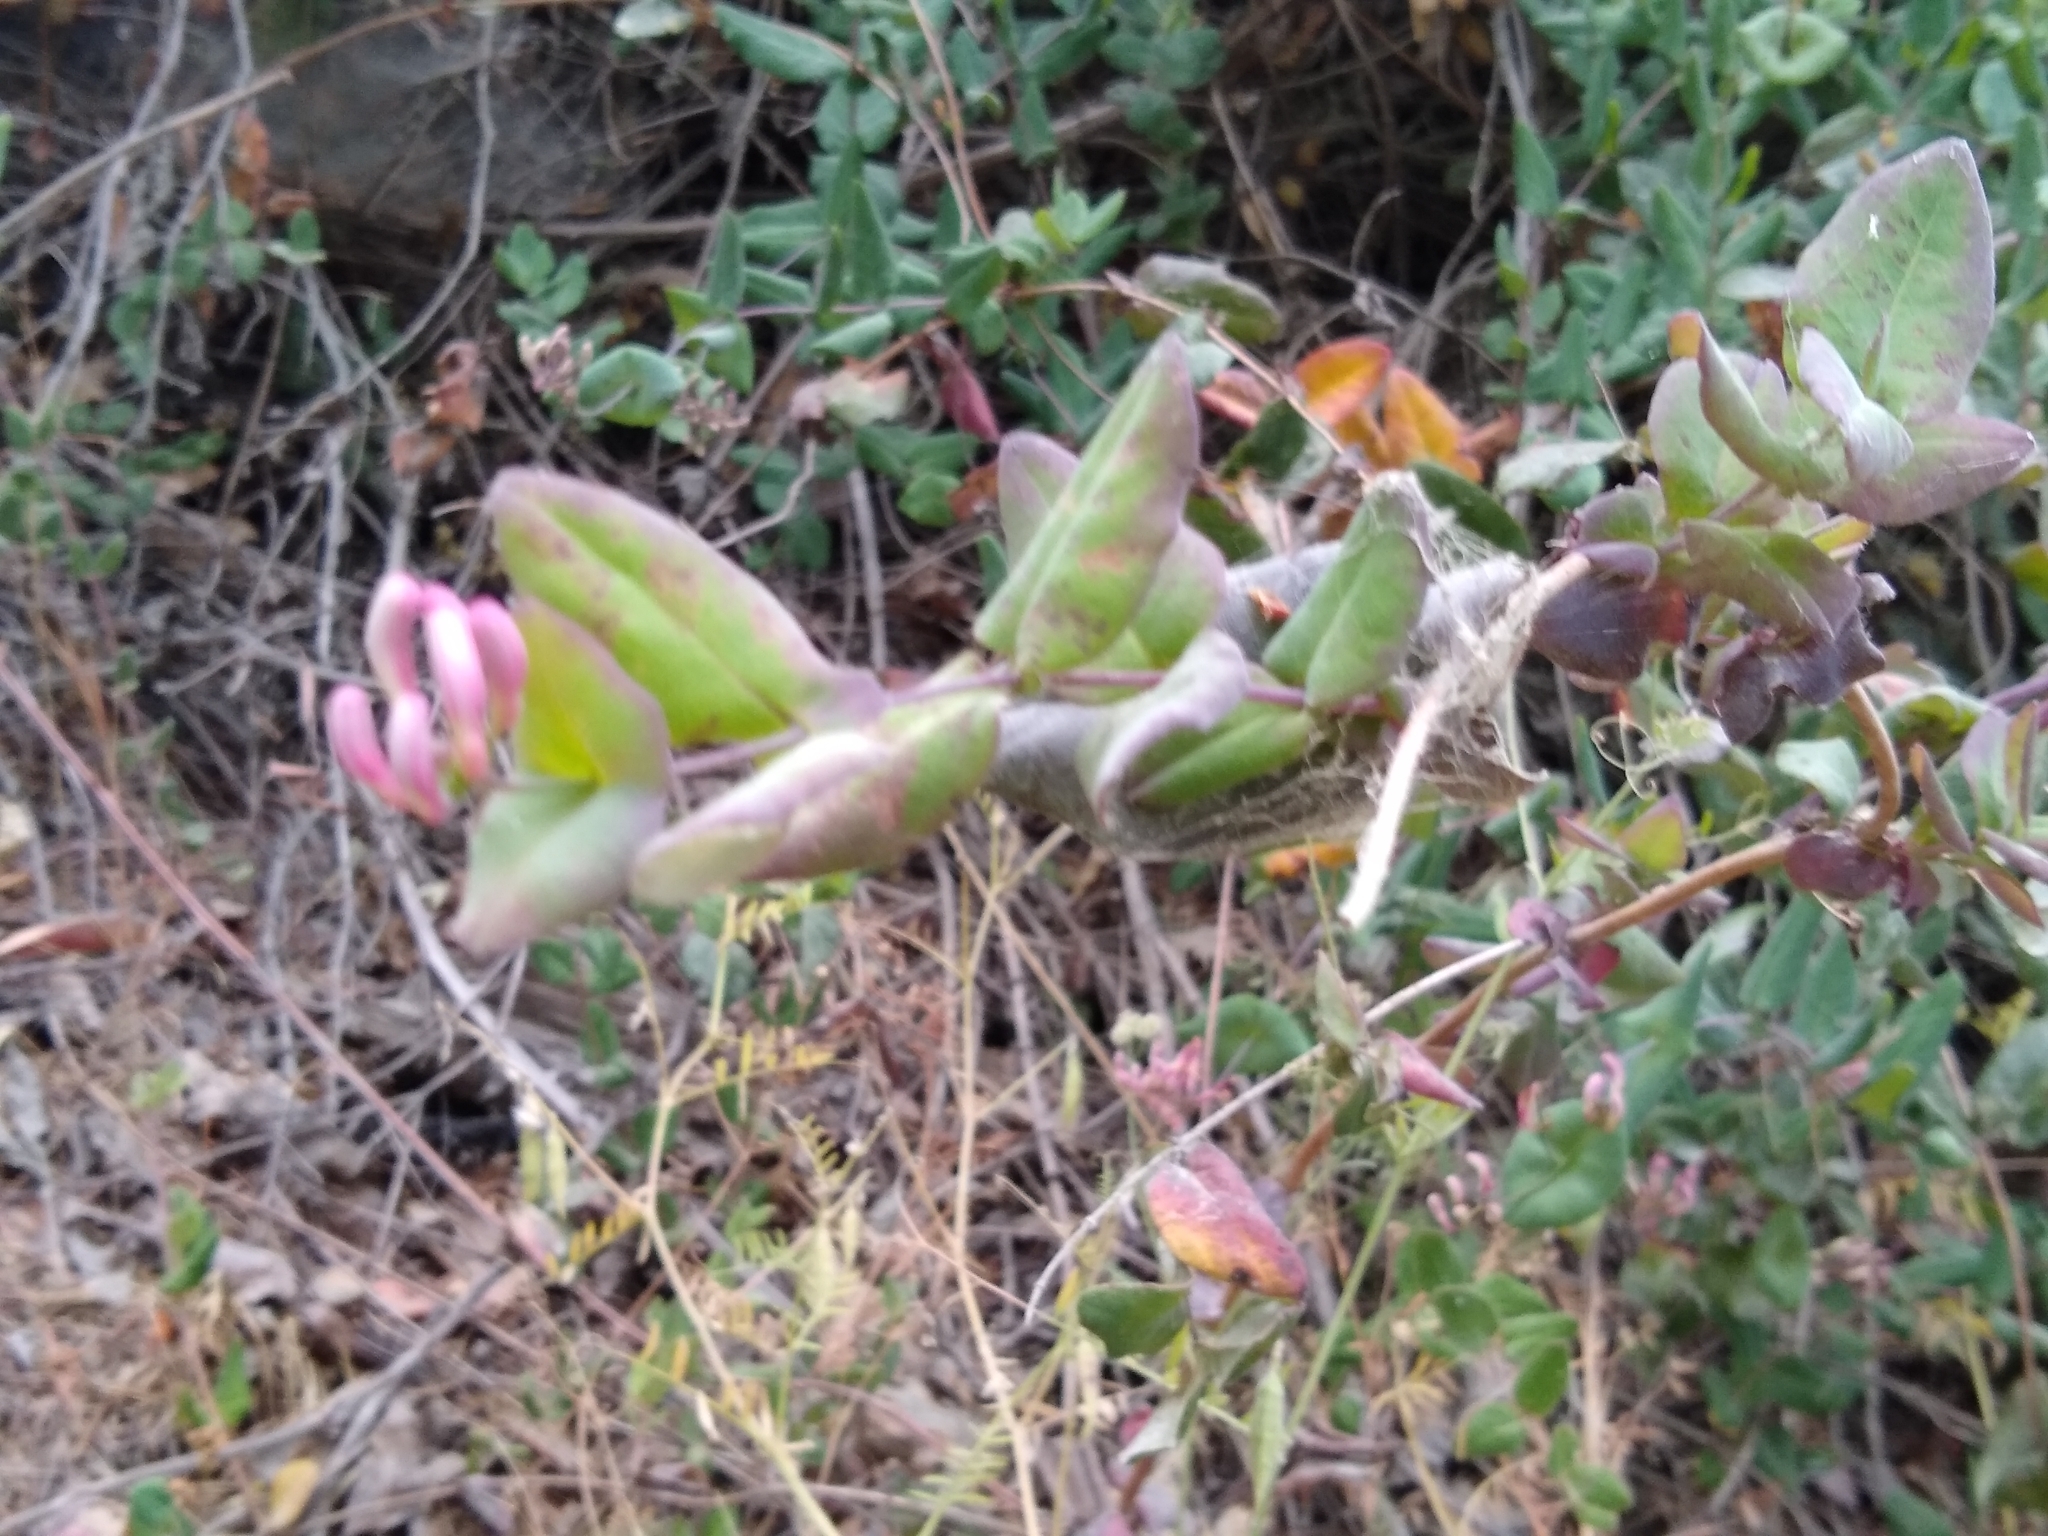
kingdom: Plantae
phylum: Tracheophyta
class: Magnoliopsida
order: Dipsacales
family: Caprifoliaceae
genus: Lonicera
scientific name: Lonicera hispidula
